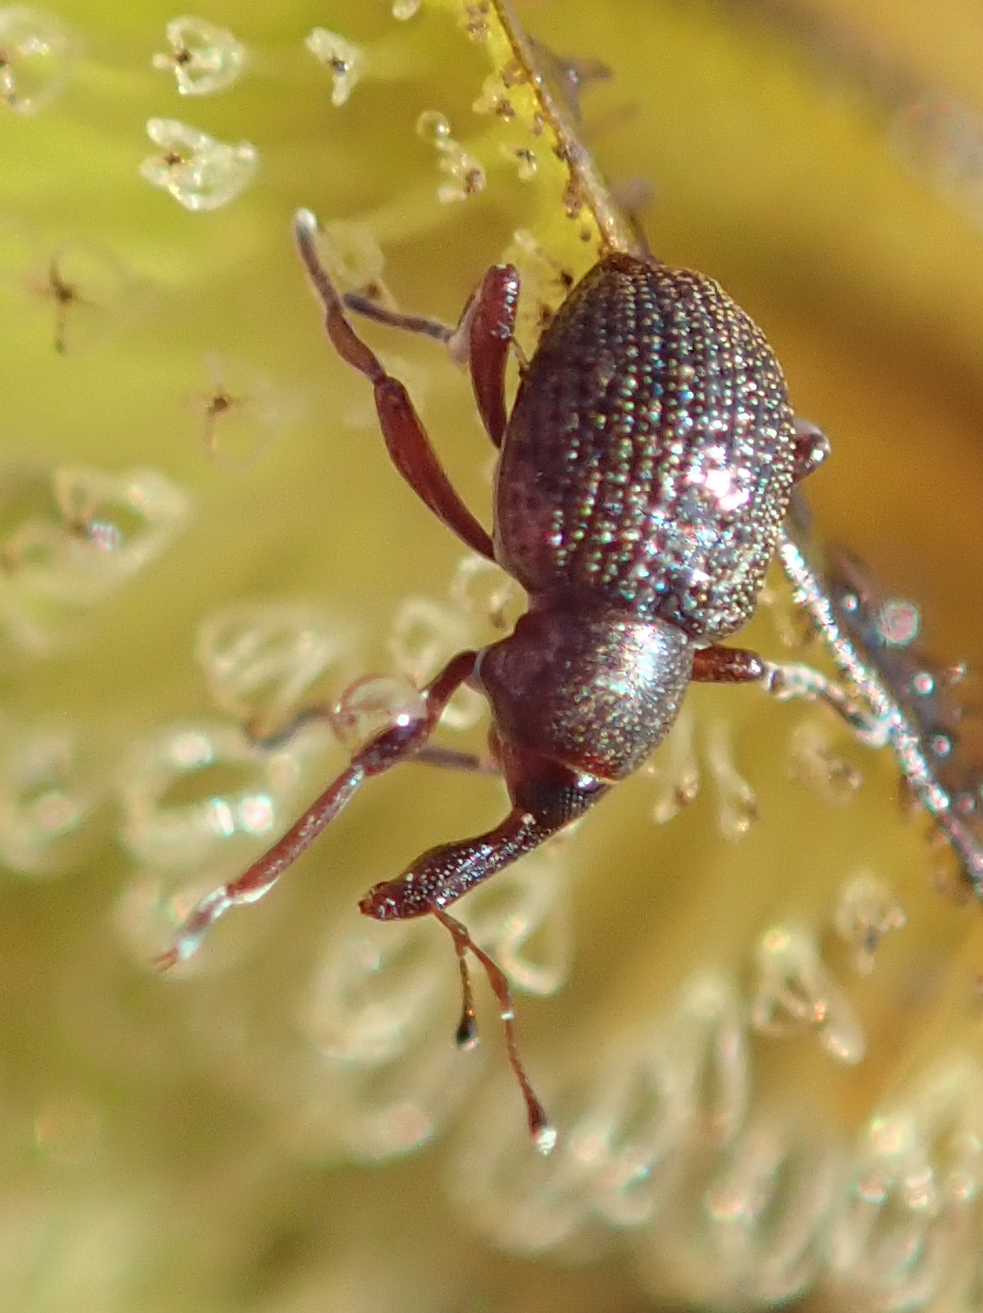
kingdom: Animalia
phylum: Arthropoda
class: Insecta
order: Coleoptera
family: Brachyceridae
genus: Cyrtobagous
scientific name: Cyrtobagous salviniae
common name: Salvinia weevil
